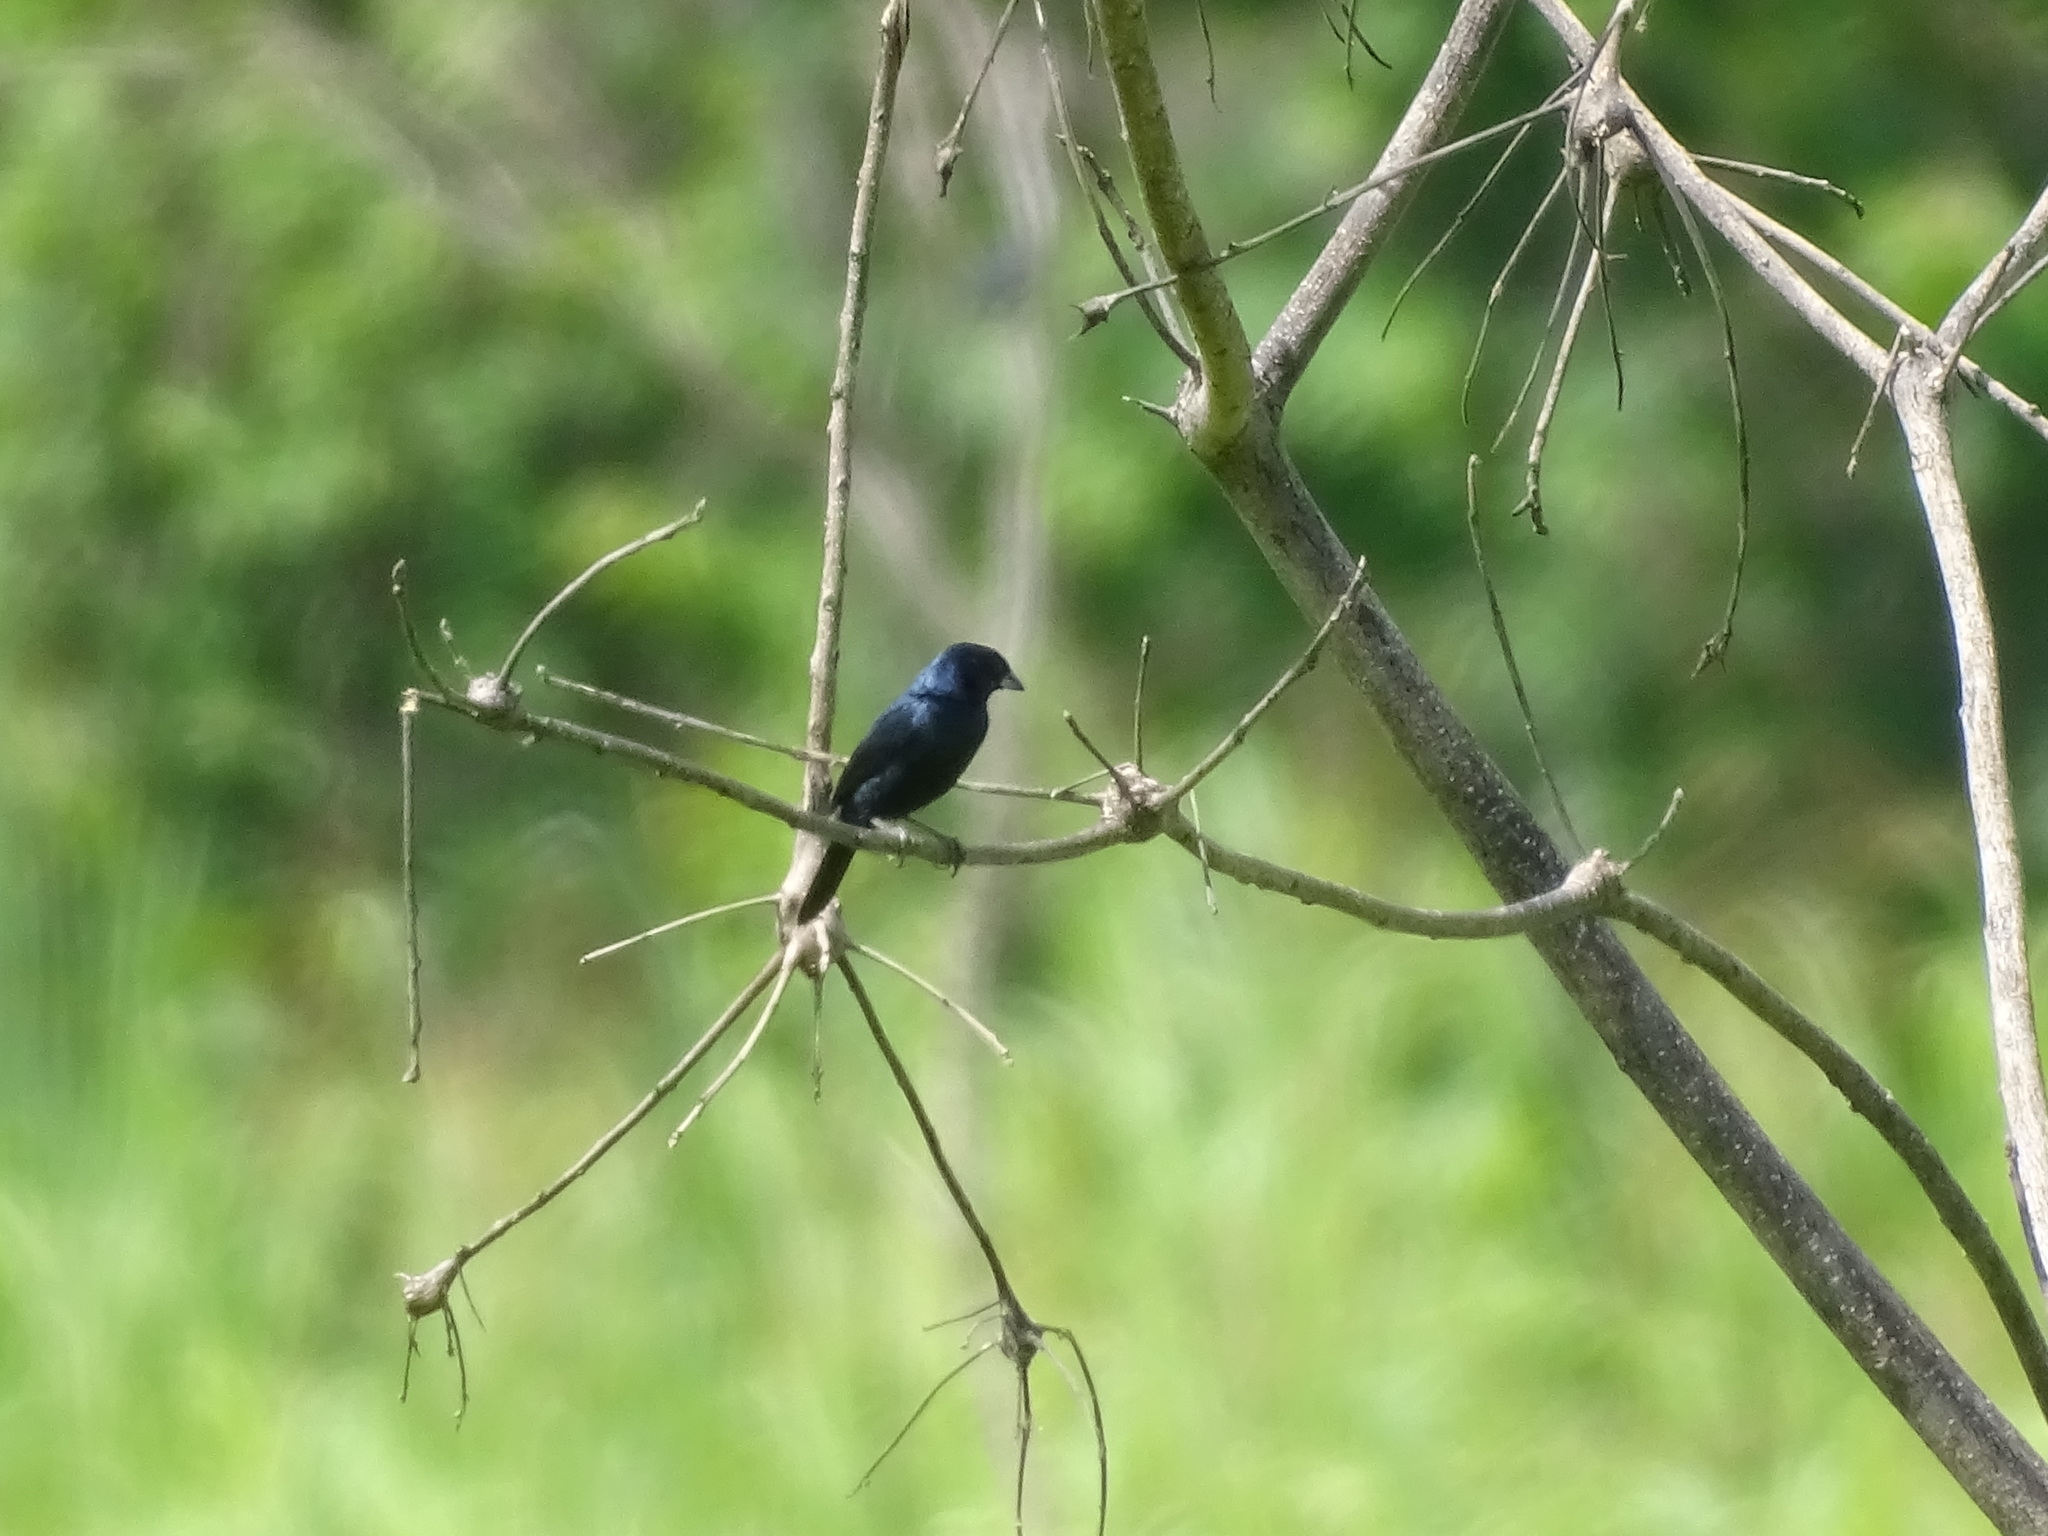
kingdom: Animalia
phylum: Chordata
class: Aves
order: Passeriformes
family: Thraupidae
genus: Volatinia
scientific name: Volatinia jacarina
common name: Blue-black grassquit
